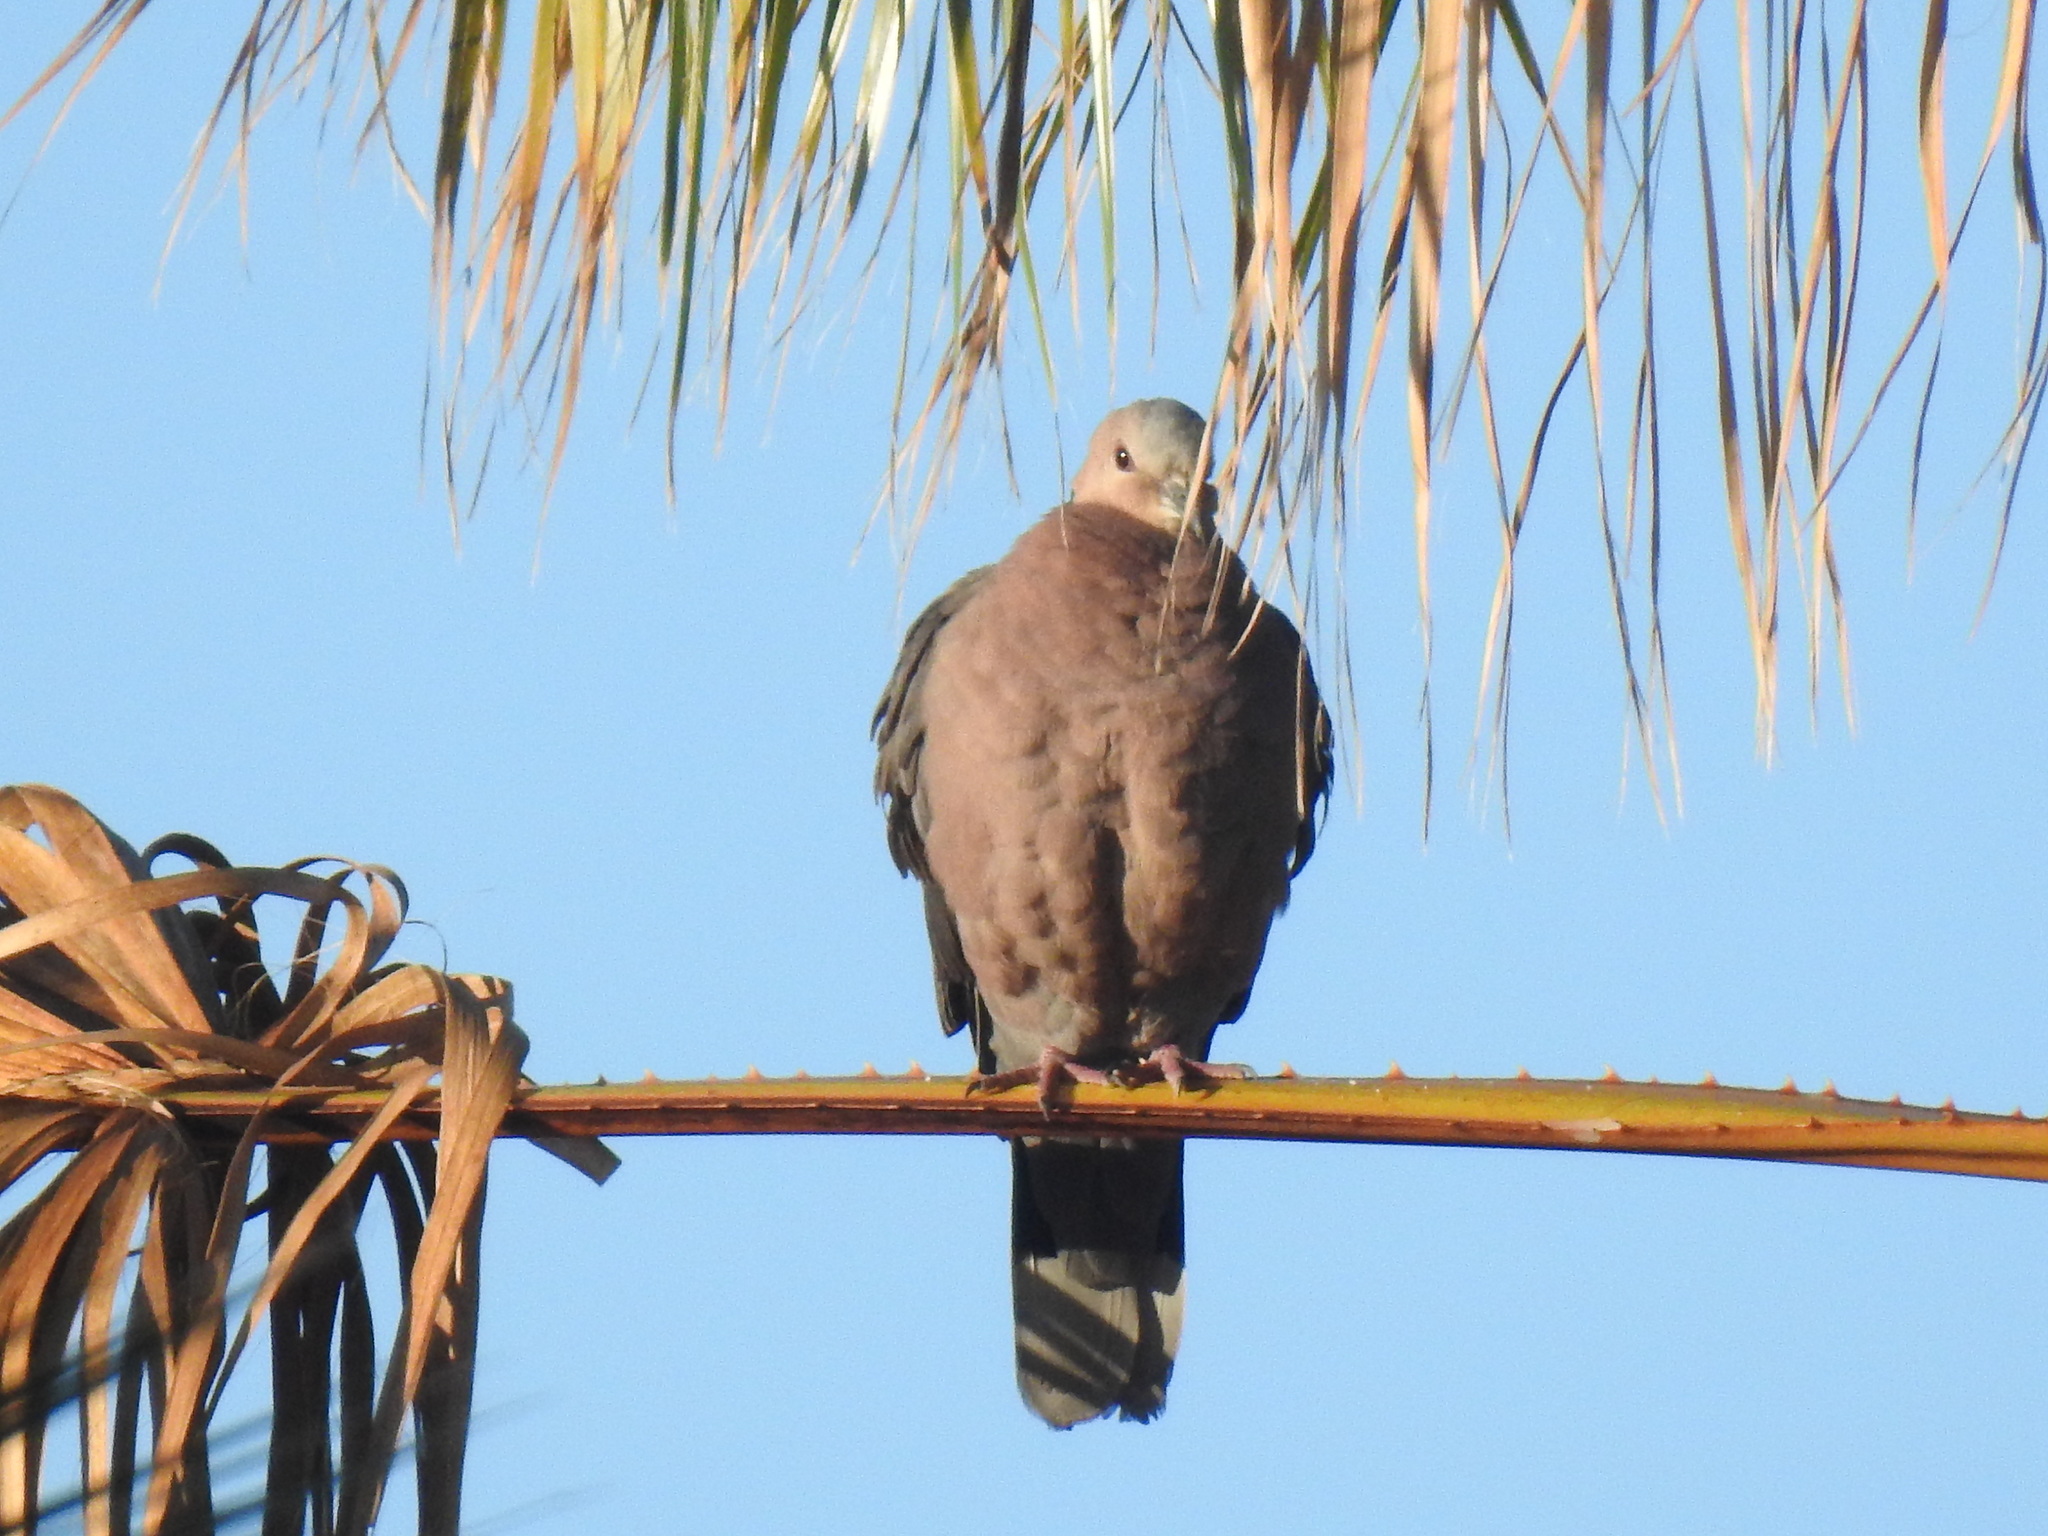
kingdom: Animalia
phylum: Chordata
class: Aves
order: Columbiformes
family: Columbidae
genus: Streptopelia
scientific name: Streptopelia semitorquata
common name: Red-eyed dove
